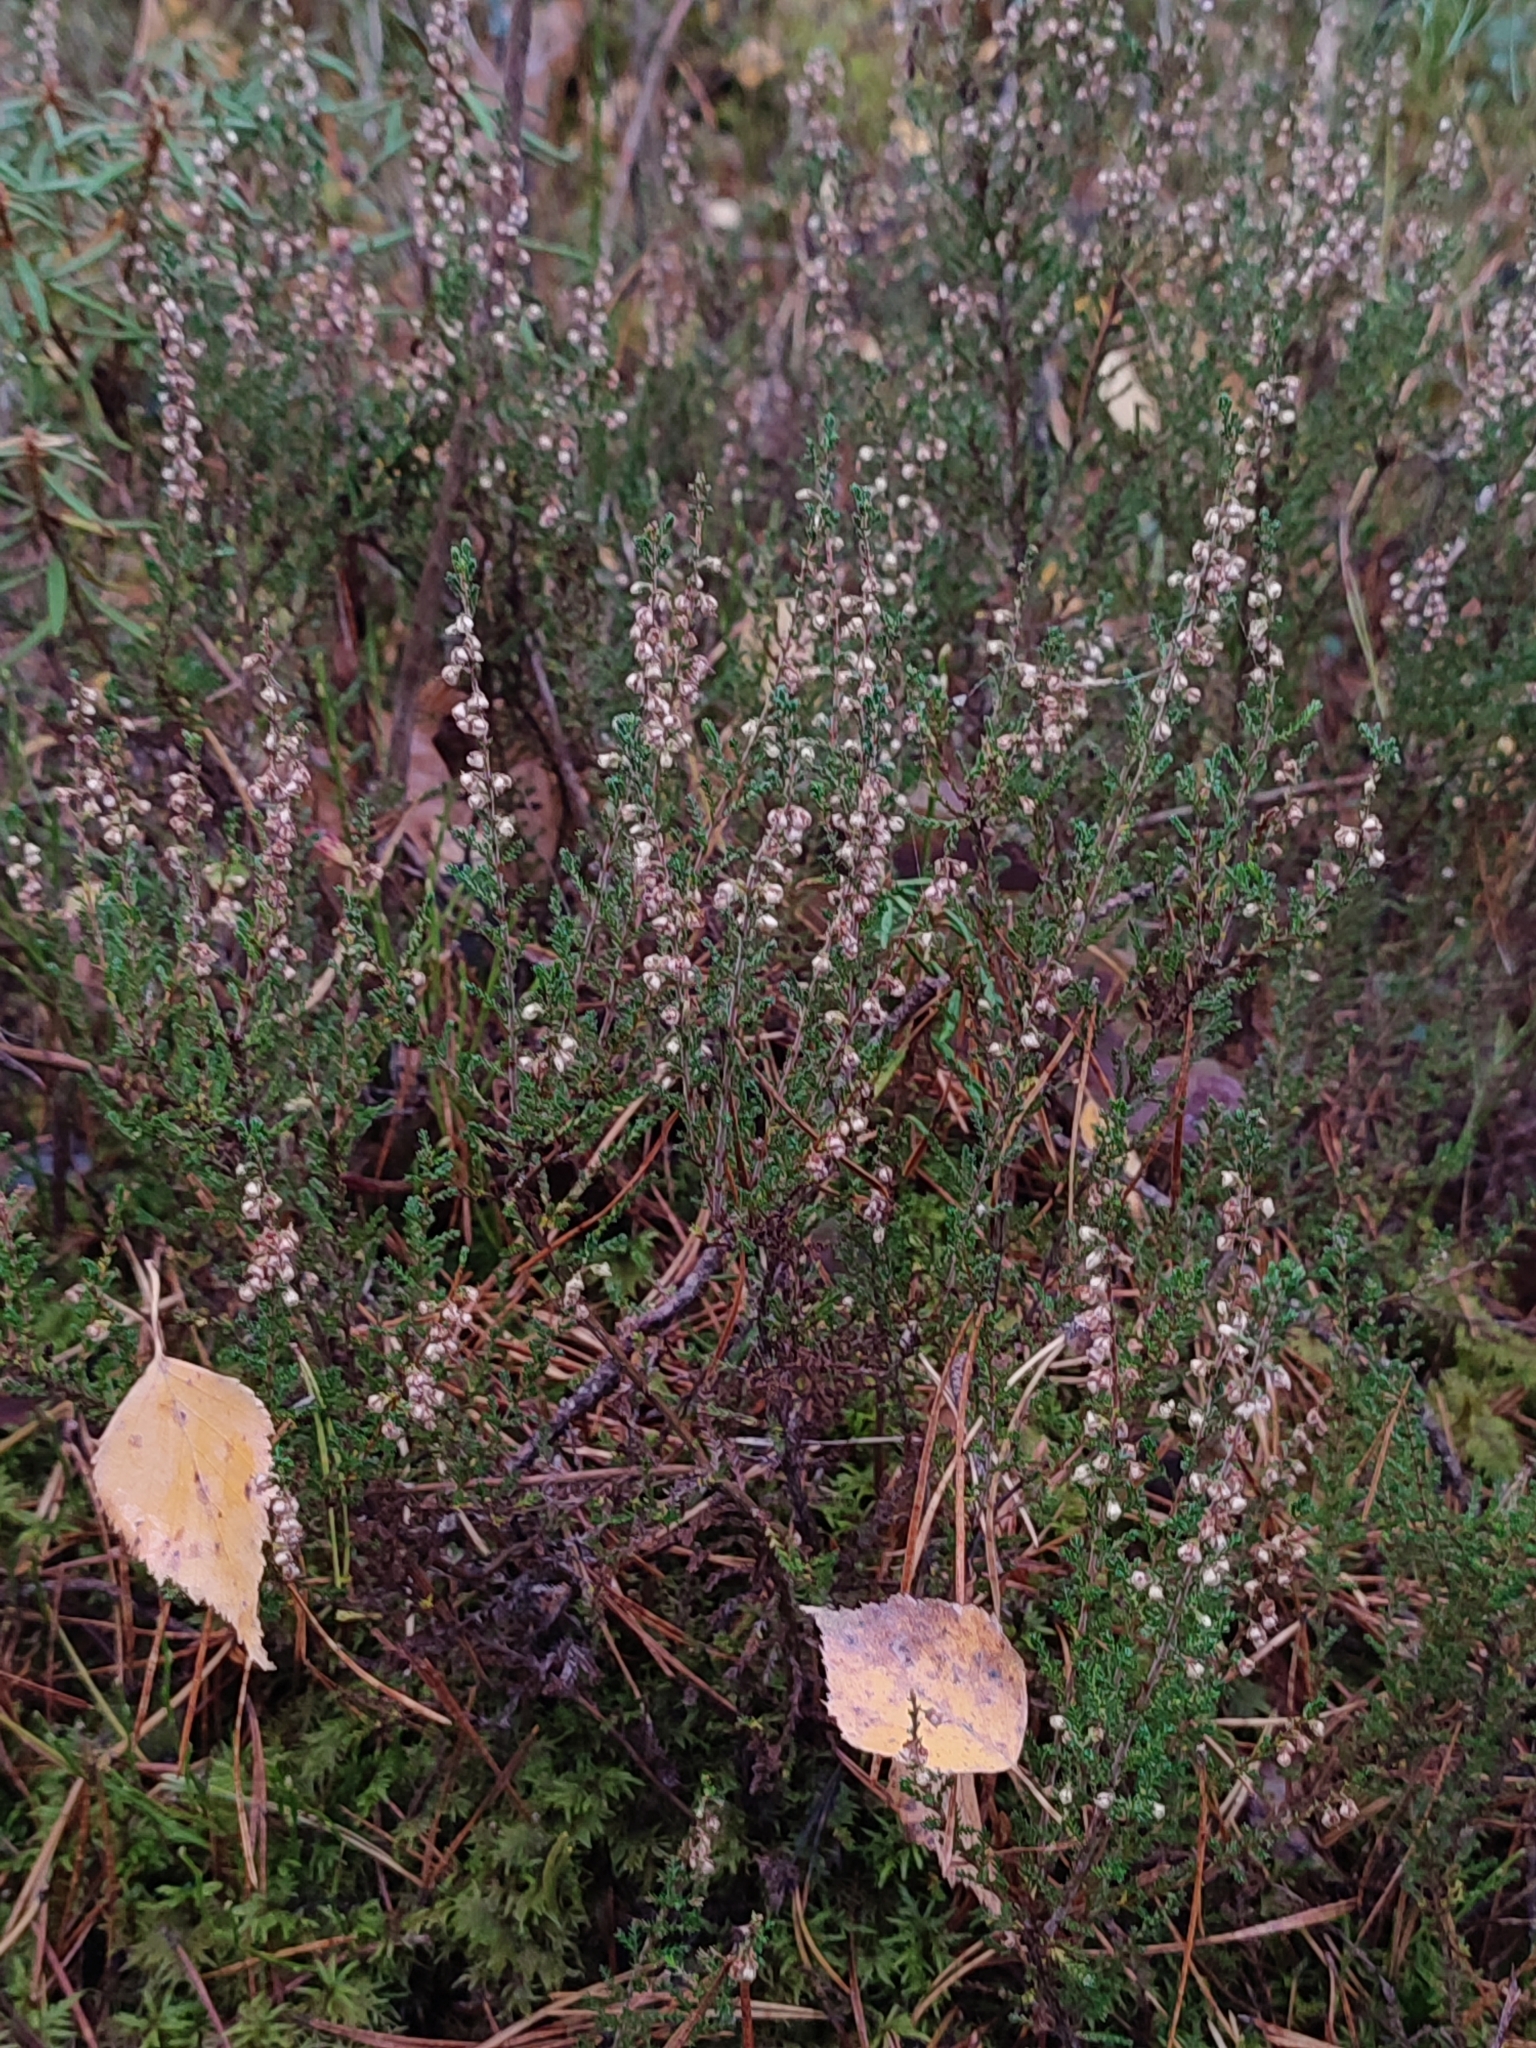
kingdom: Plantae
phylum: Tracheophyta
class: Magnoliopsida
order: Ericales
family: Ericaceae
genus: Calluna
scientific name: Calluna vulgaris
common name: Heather
